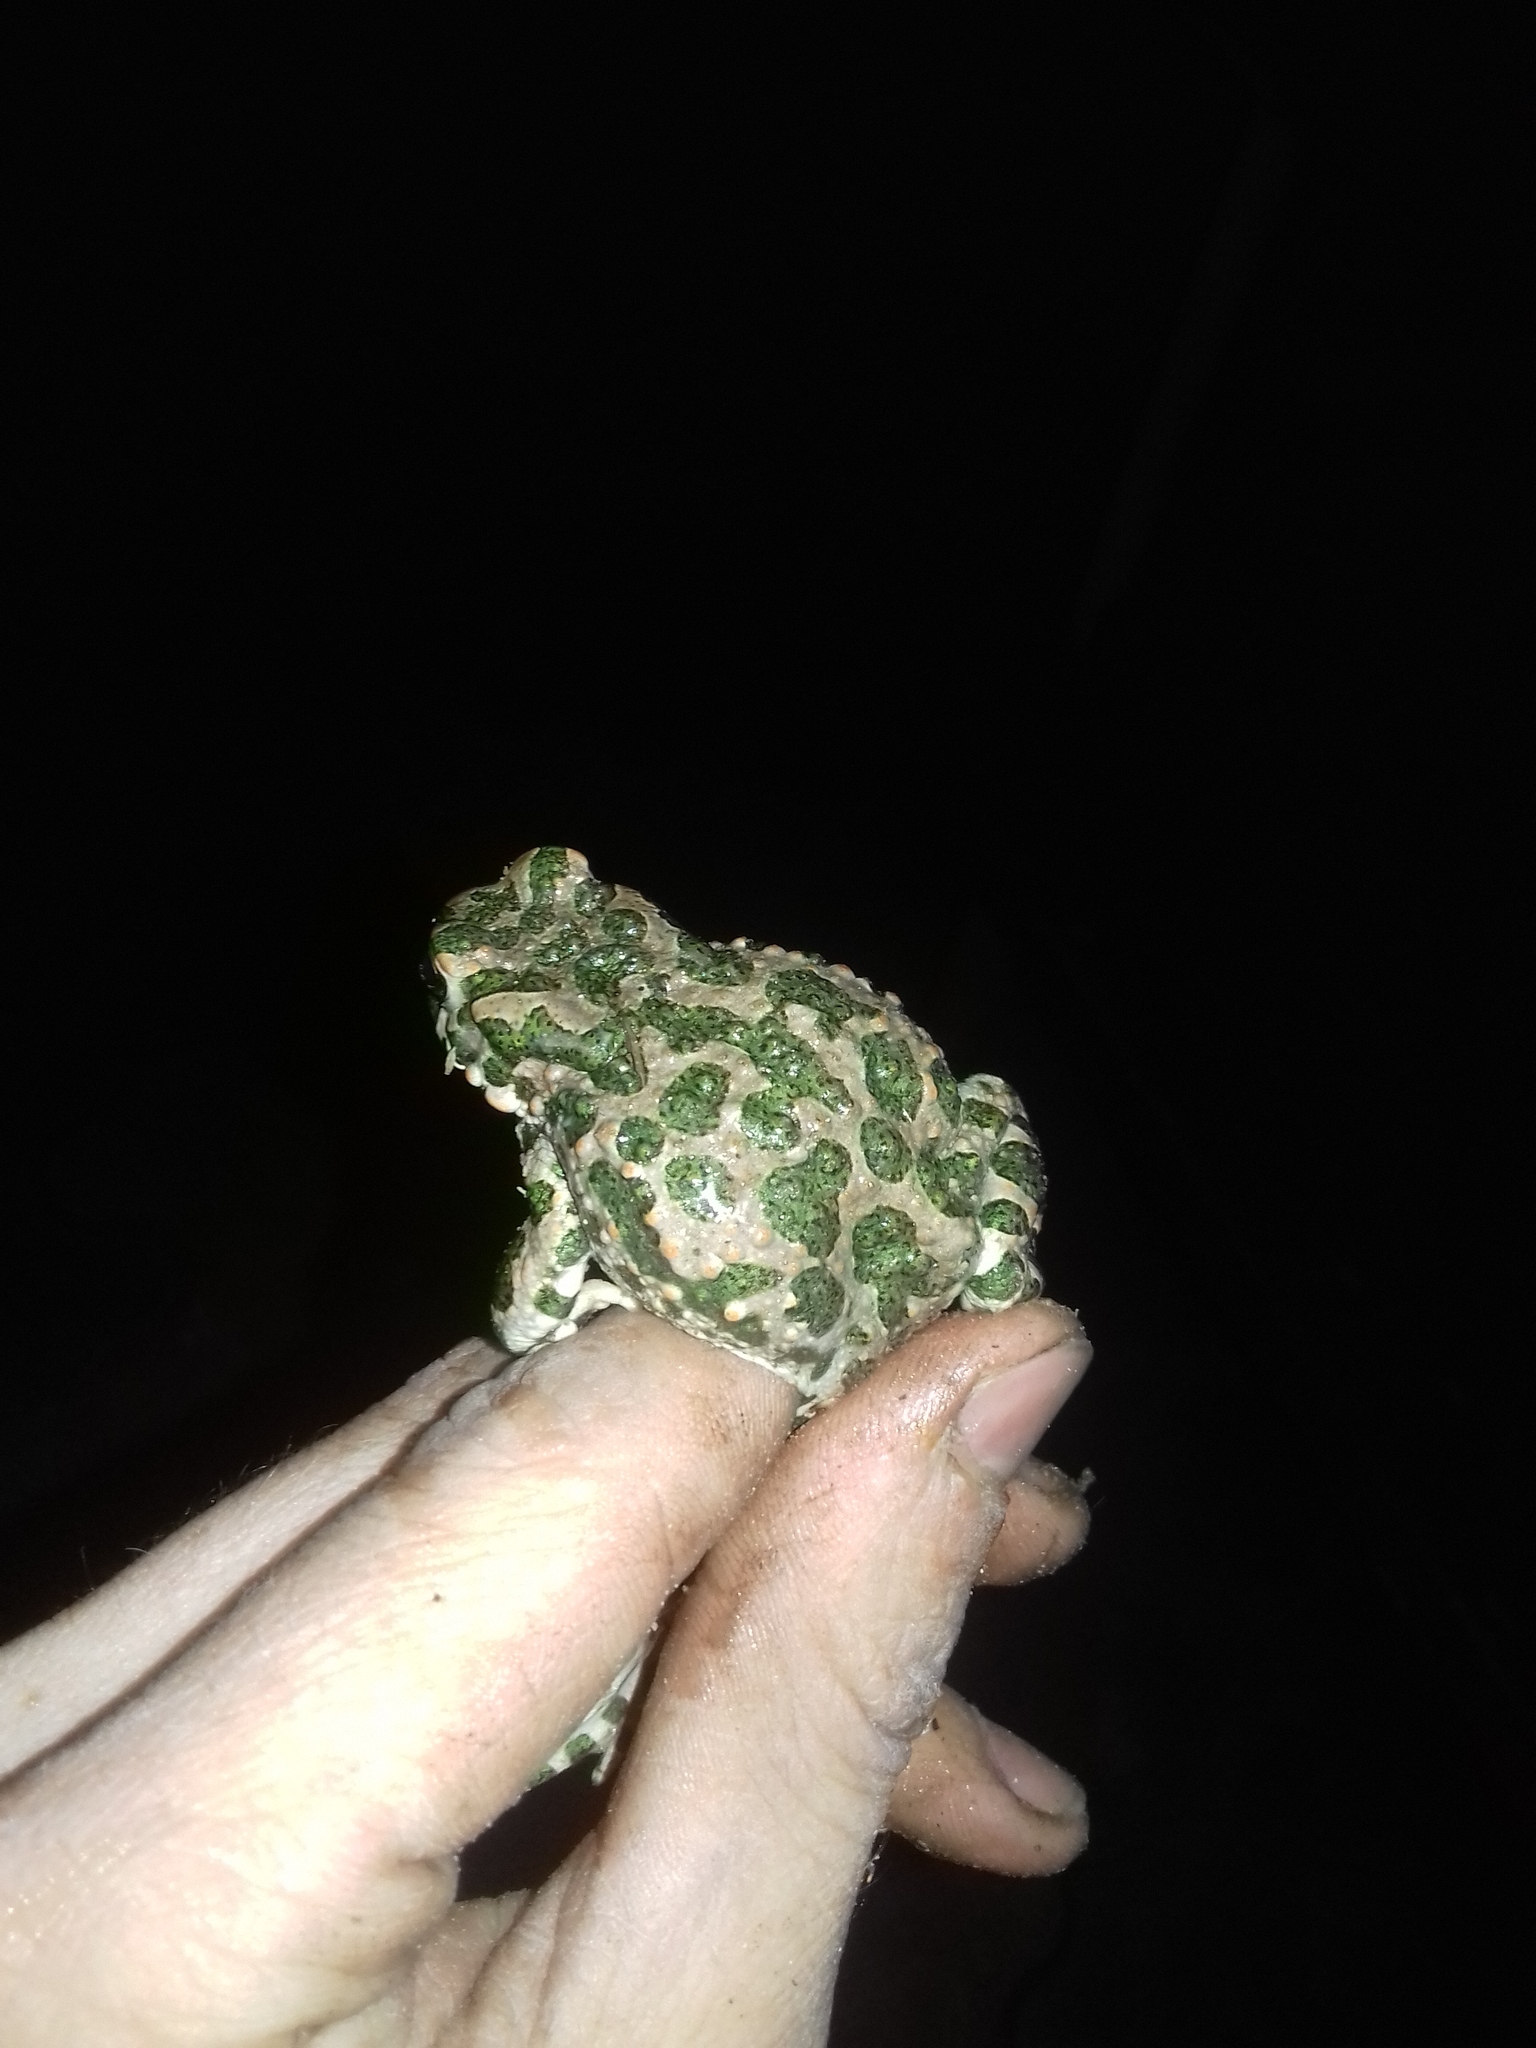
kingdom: Animalia
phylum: Chordata
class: Amphibia
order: Anura
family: Bufonidae
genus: Bufotes
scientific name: Bufotes viridis
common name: European green toad
